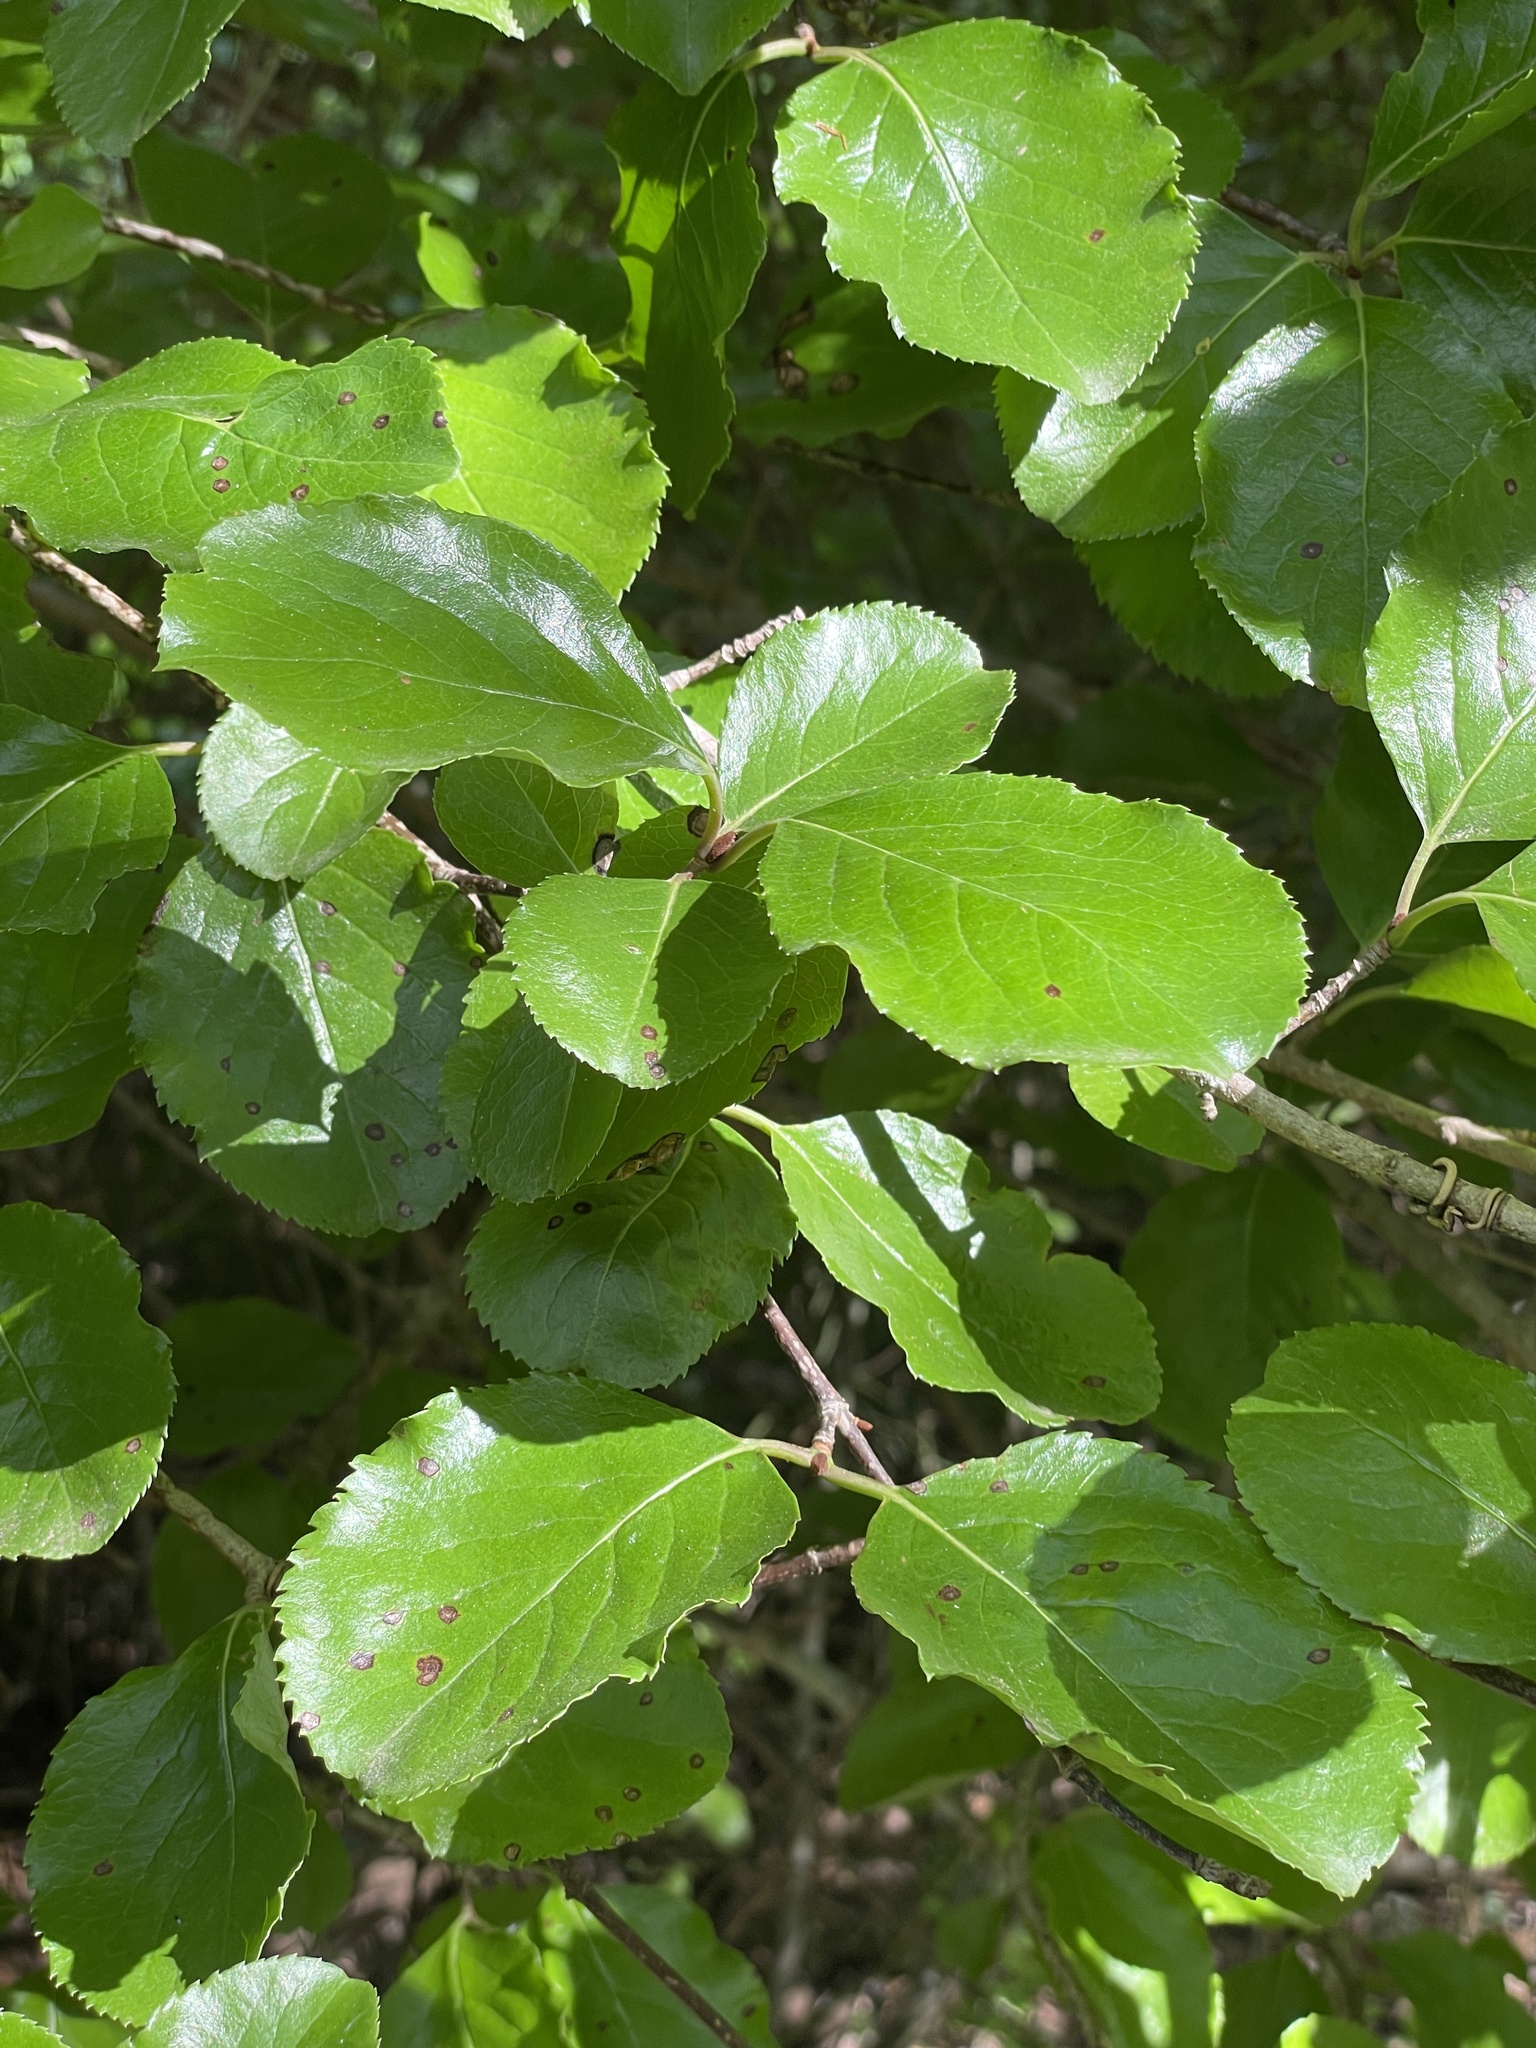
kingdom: Plantae
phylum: Tracheophyta
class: Magnoliopsida
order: Dipsacales
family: Viburnaceae
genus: Viburnum
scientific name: Viburnum rufidulum
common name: Blue haw
